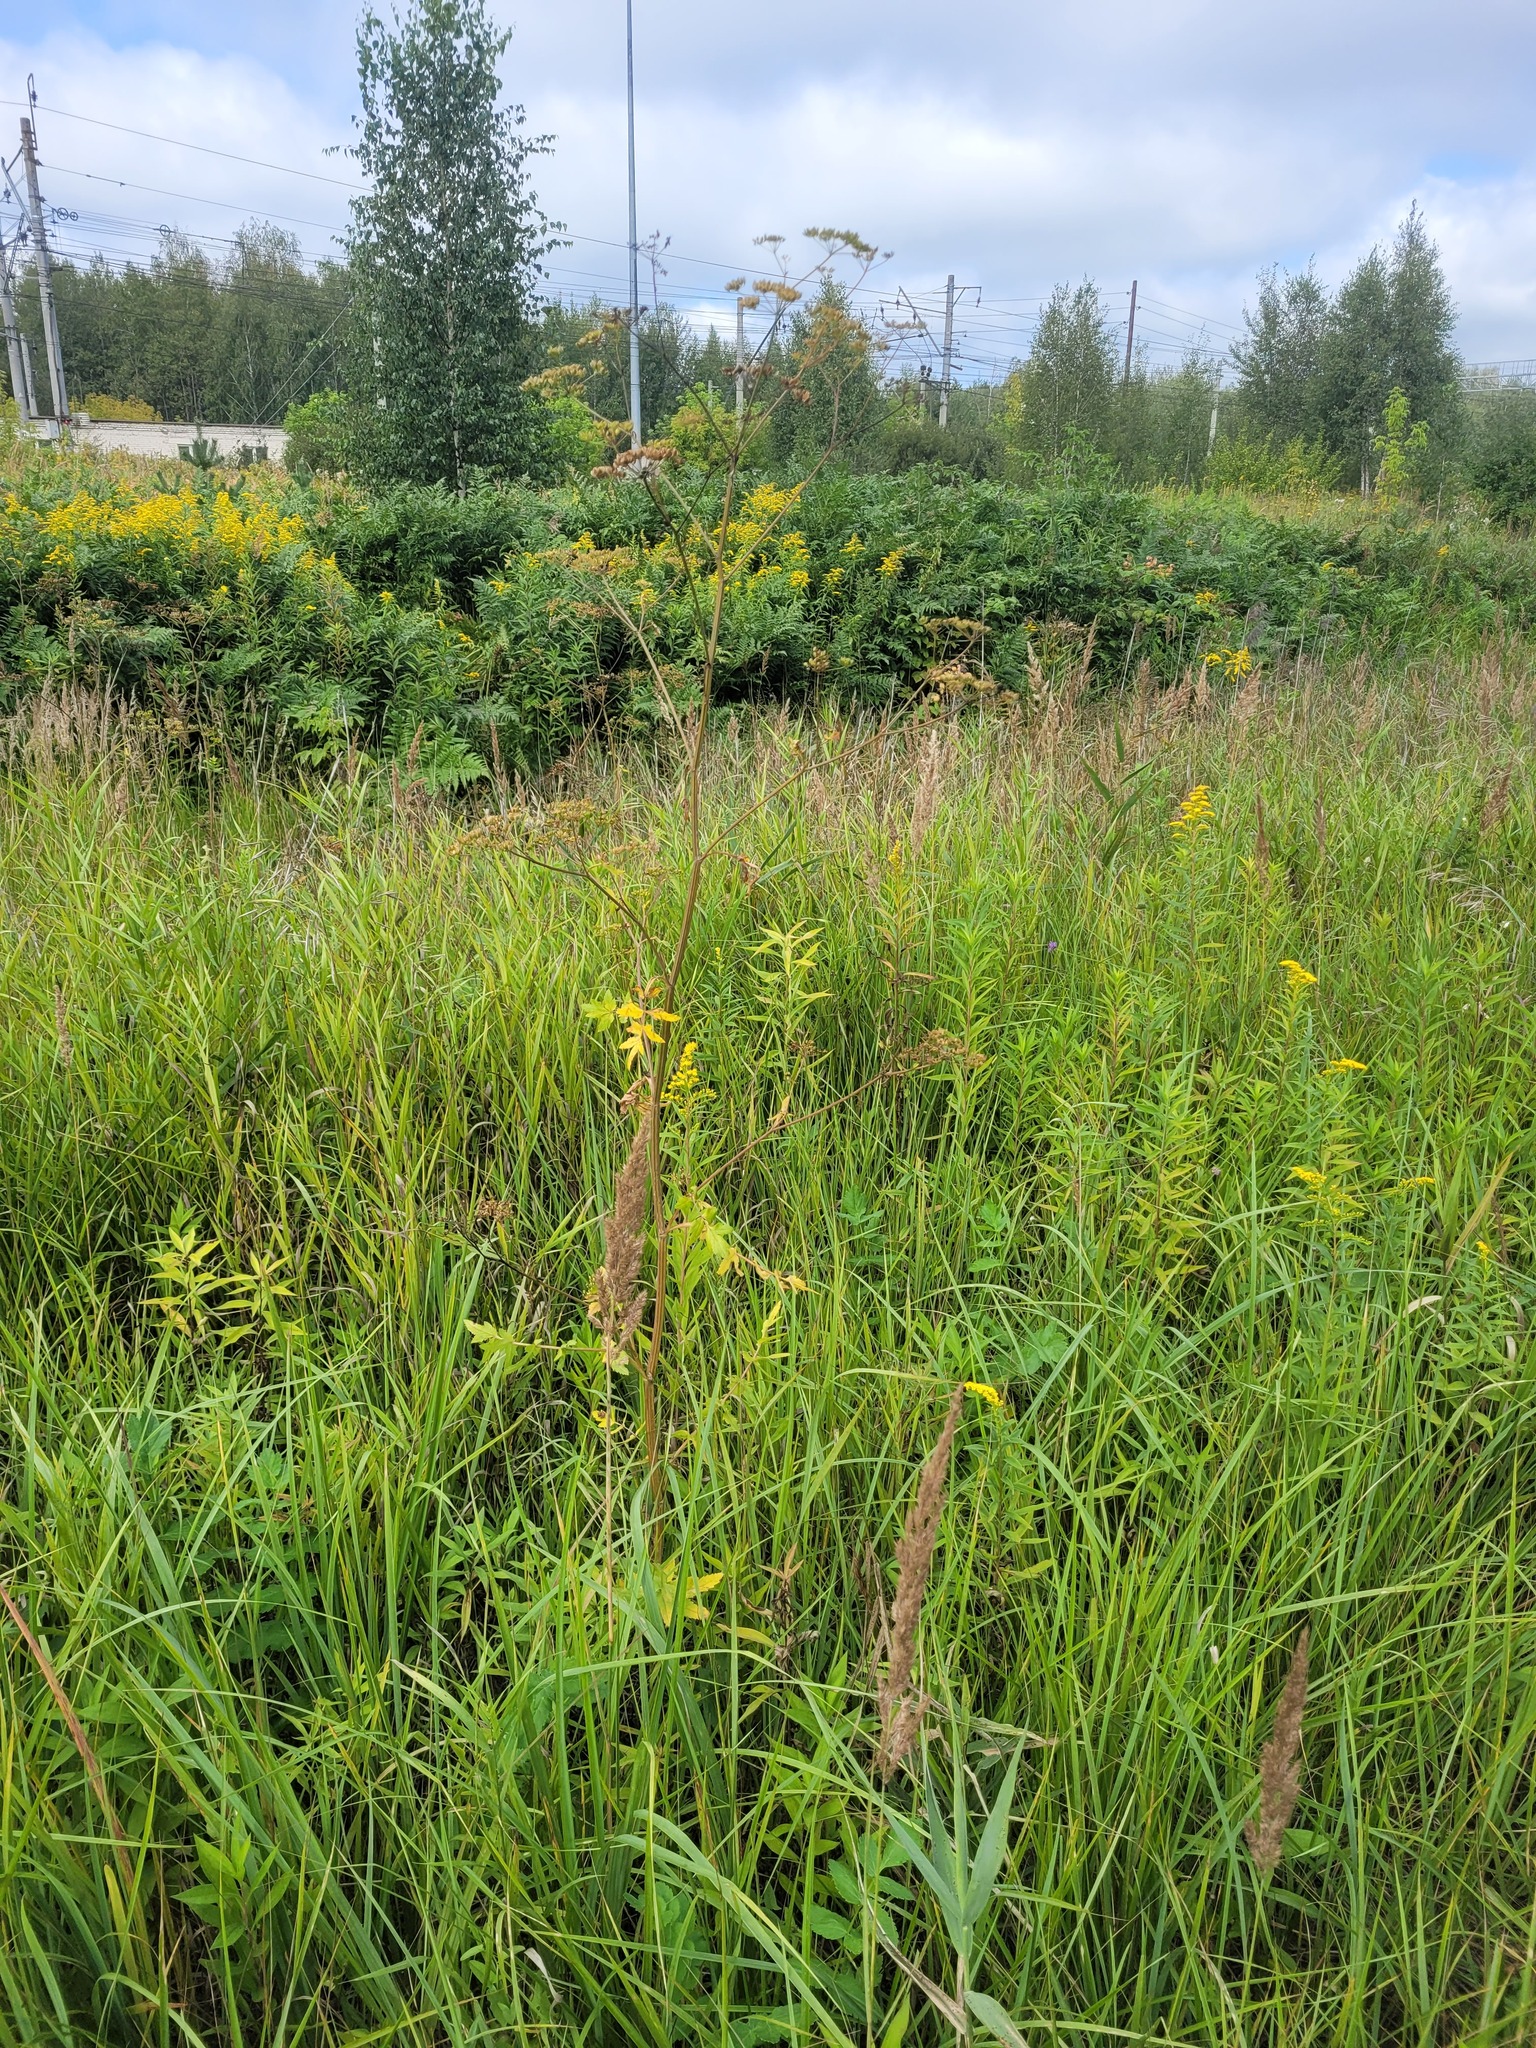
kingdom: Plantae
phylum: Tracheophyta
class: Magnoliopsida
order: Apiales
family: Apiaceae
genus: Pastinaca
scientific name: Pastinaca sativa
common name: Wild parsnip
